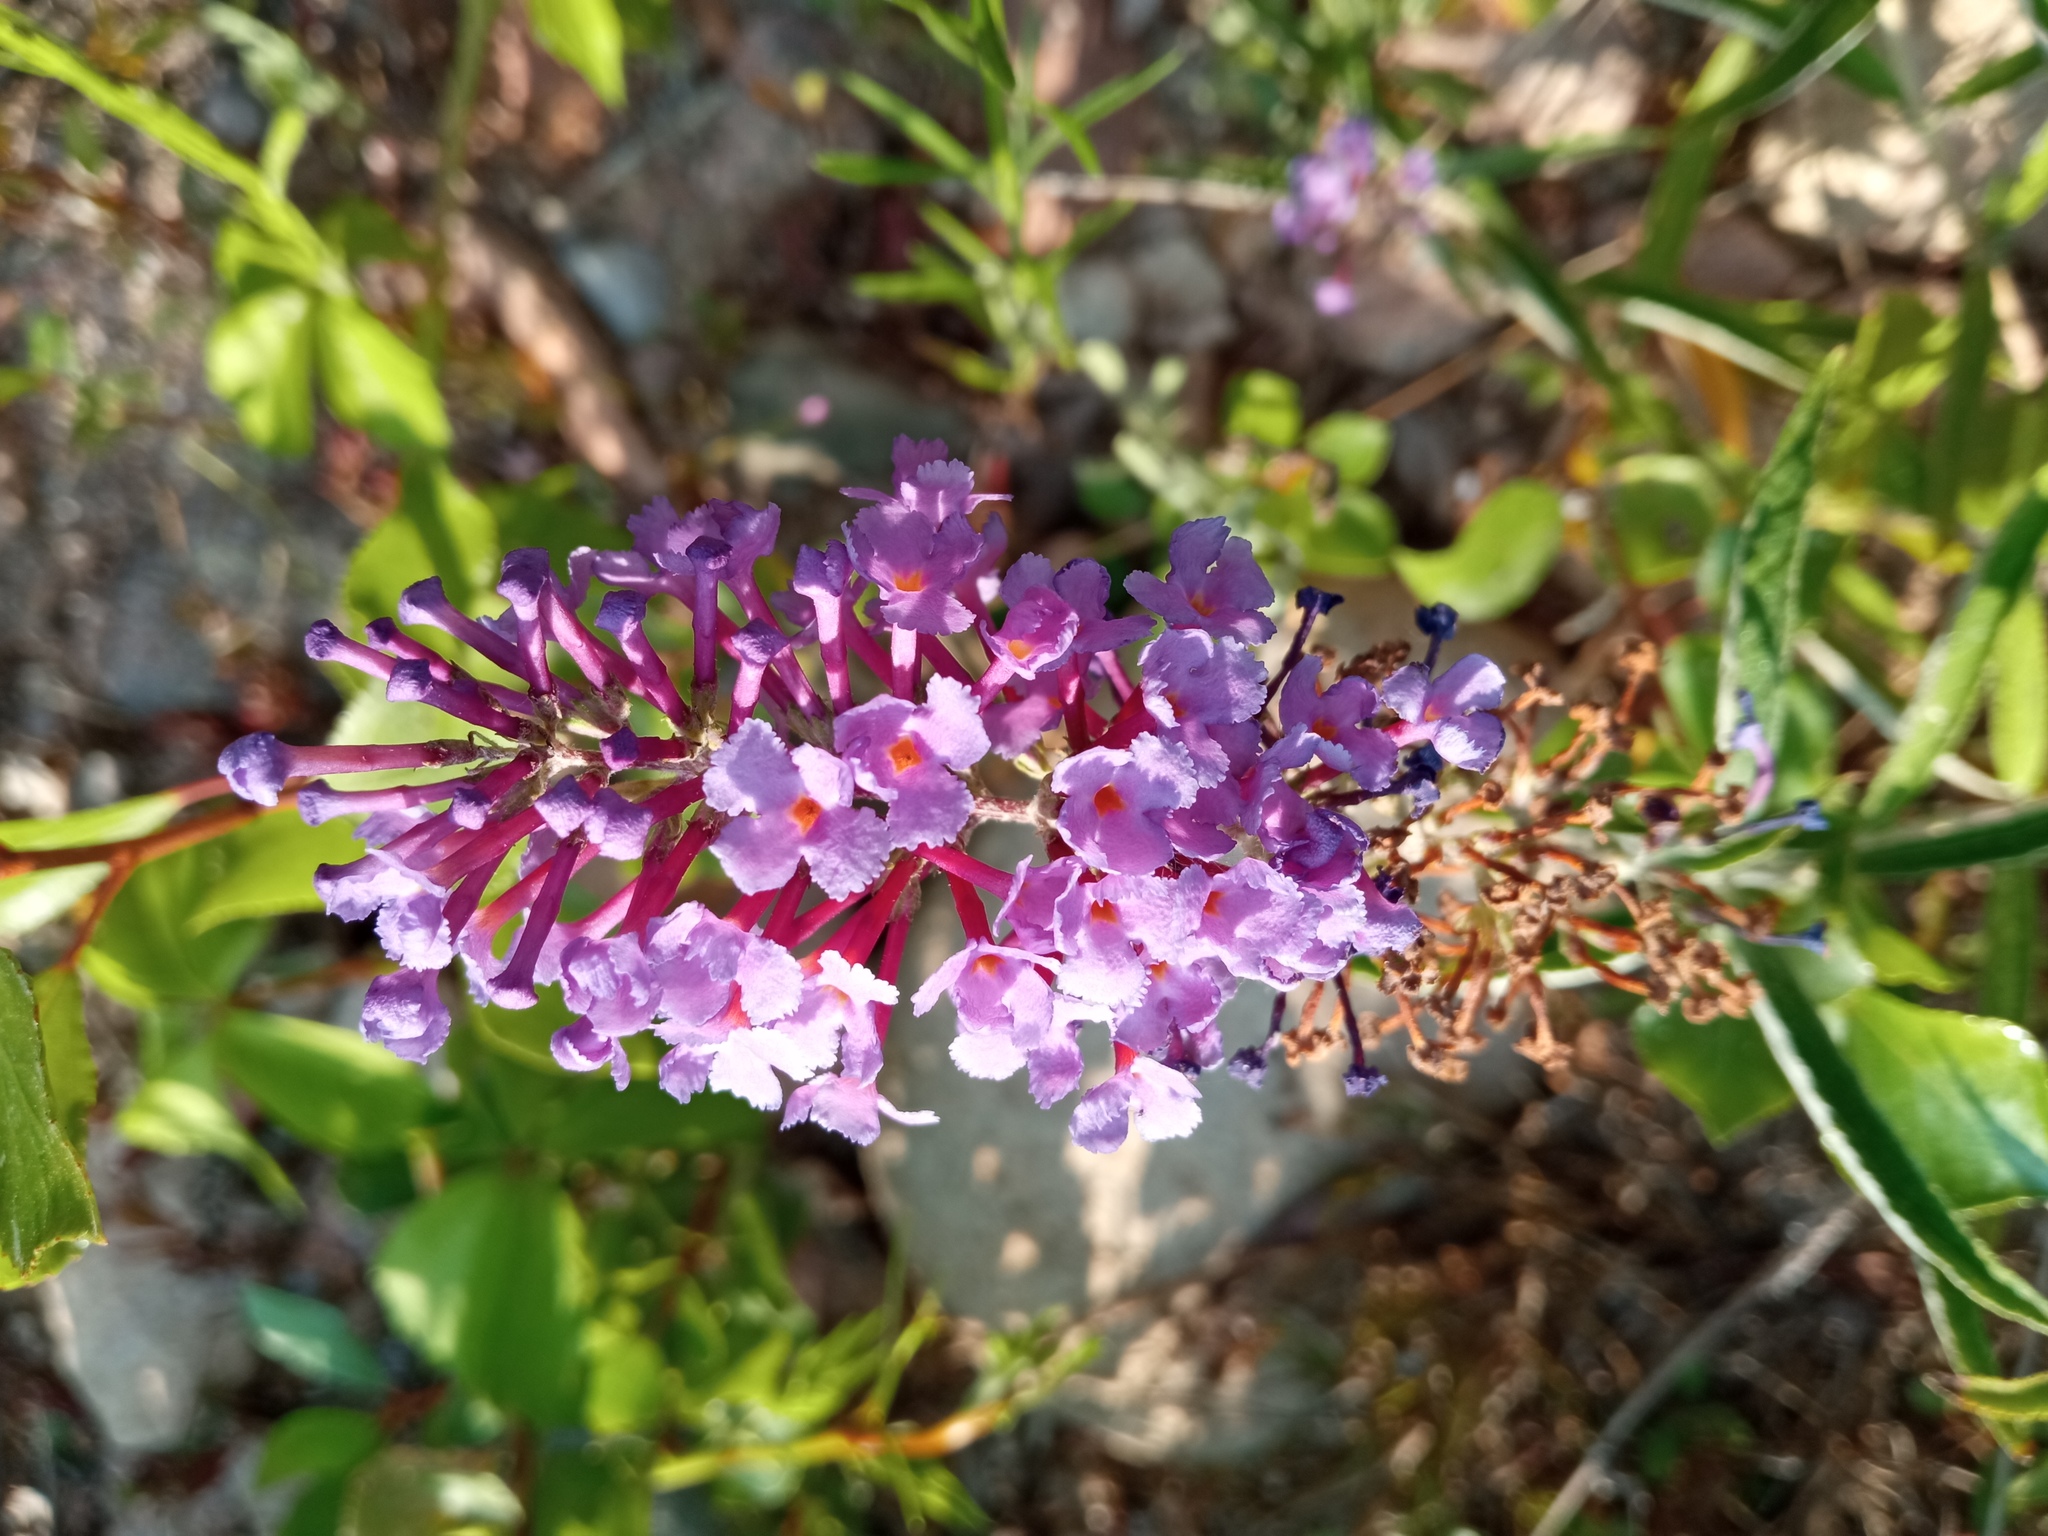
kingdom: Plantae
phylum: Tracheophyta
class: Magnoliopsida
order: Lamiales
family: Scrophulariaceae
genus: Buddleja
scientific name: Buddleja davidii
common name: Butterfly-bush
